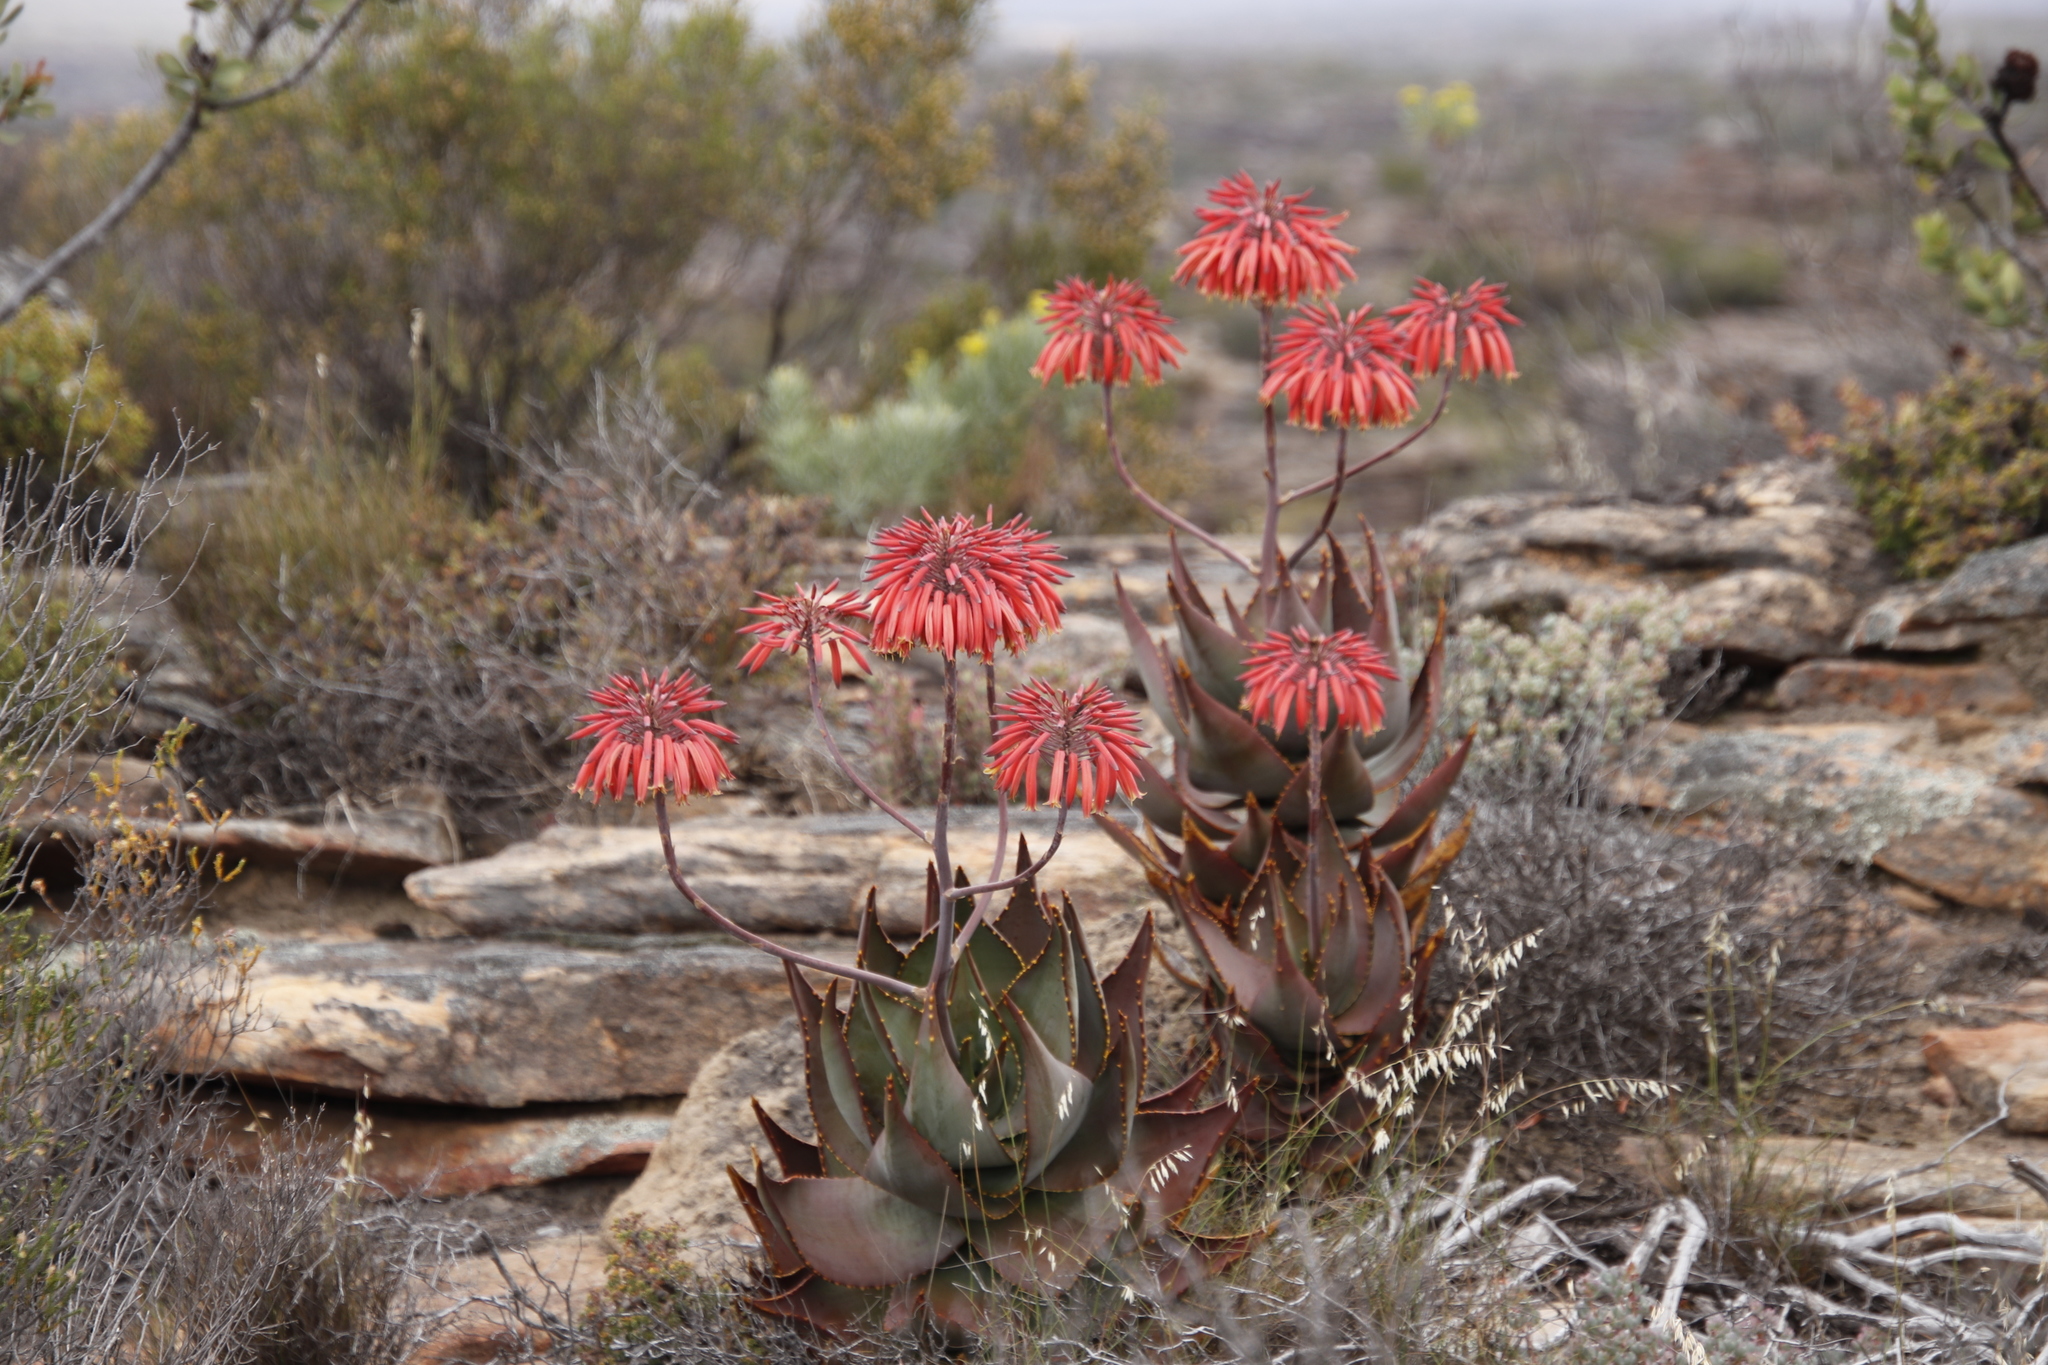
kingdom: Plantae
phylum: Tracheophyta
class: Liliopsida
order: Asparagales
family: Asphodelaceae
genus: Aloe
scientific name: Aloe perfoliata
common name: Mitra aloe
